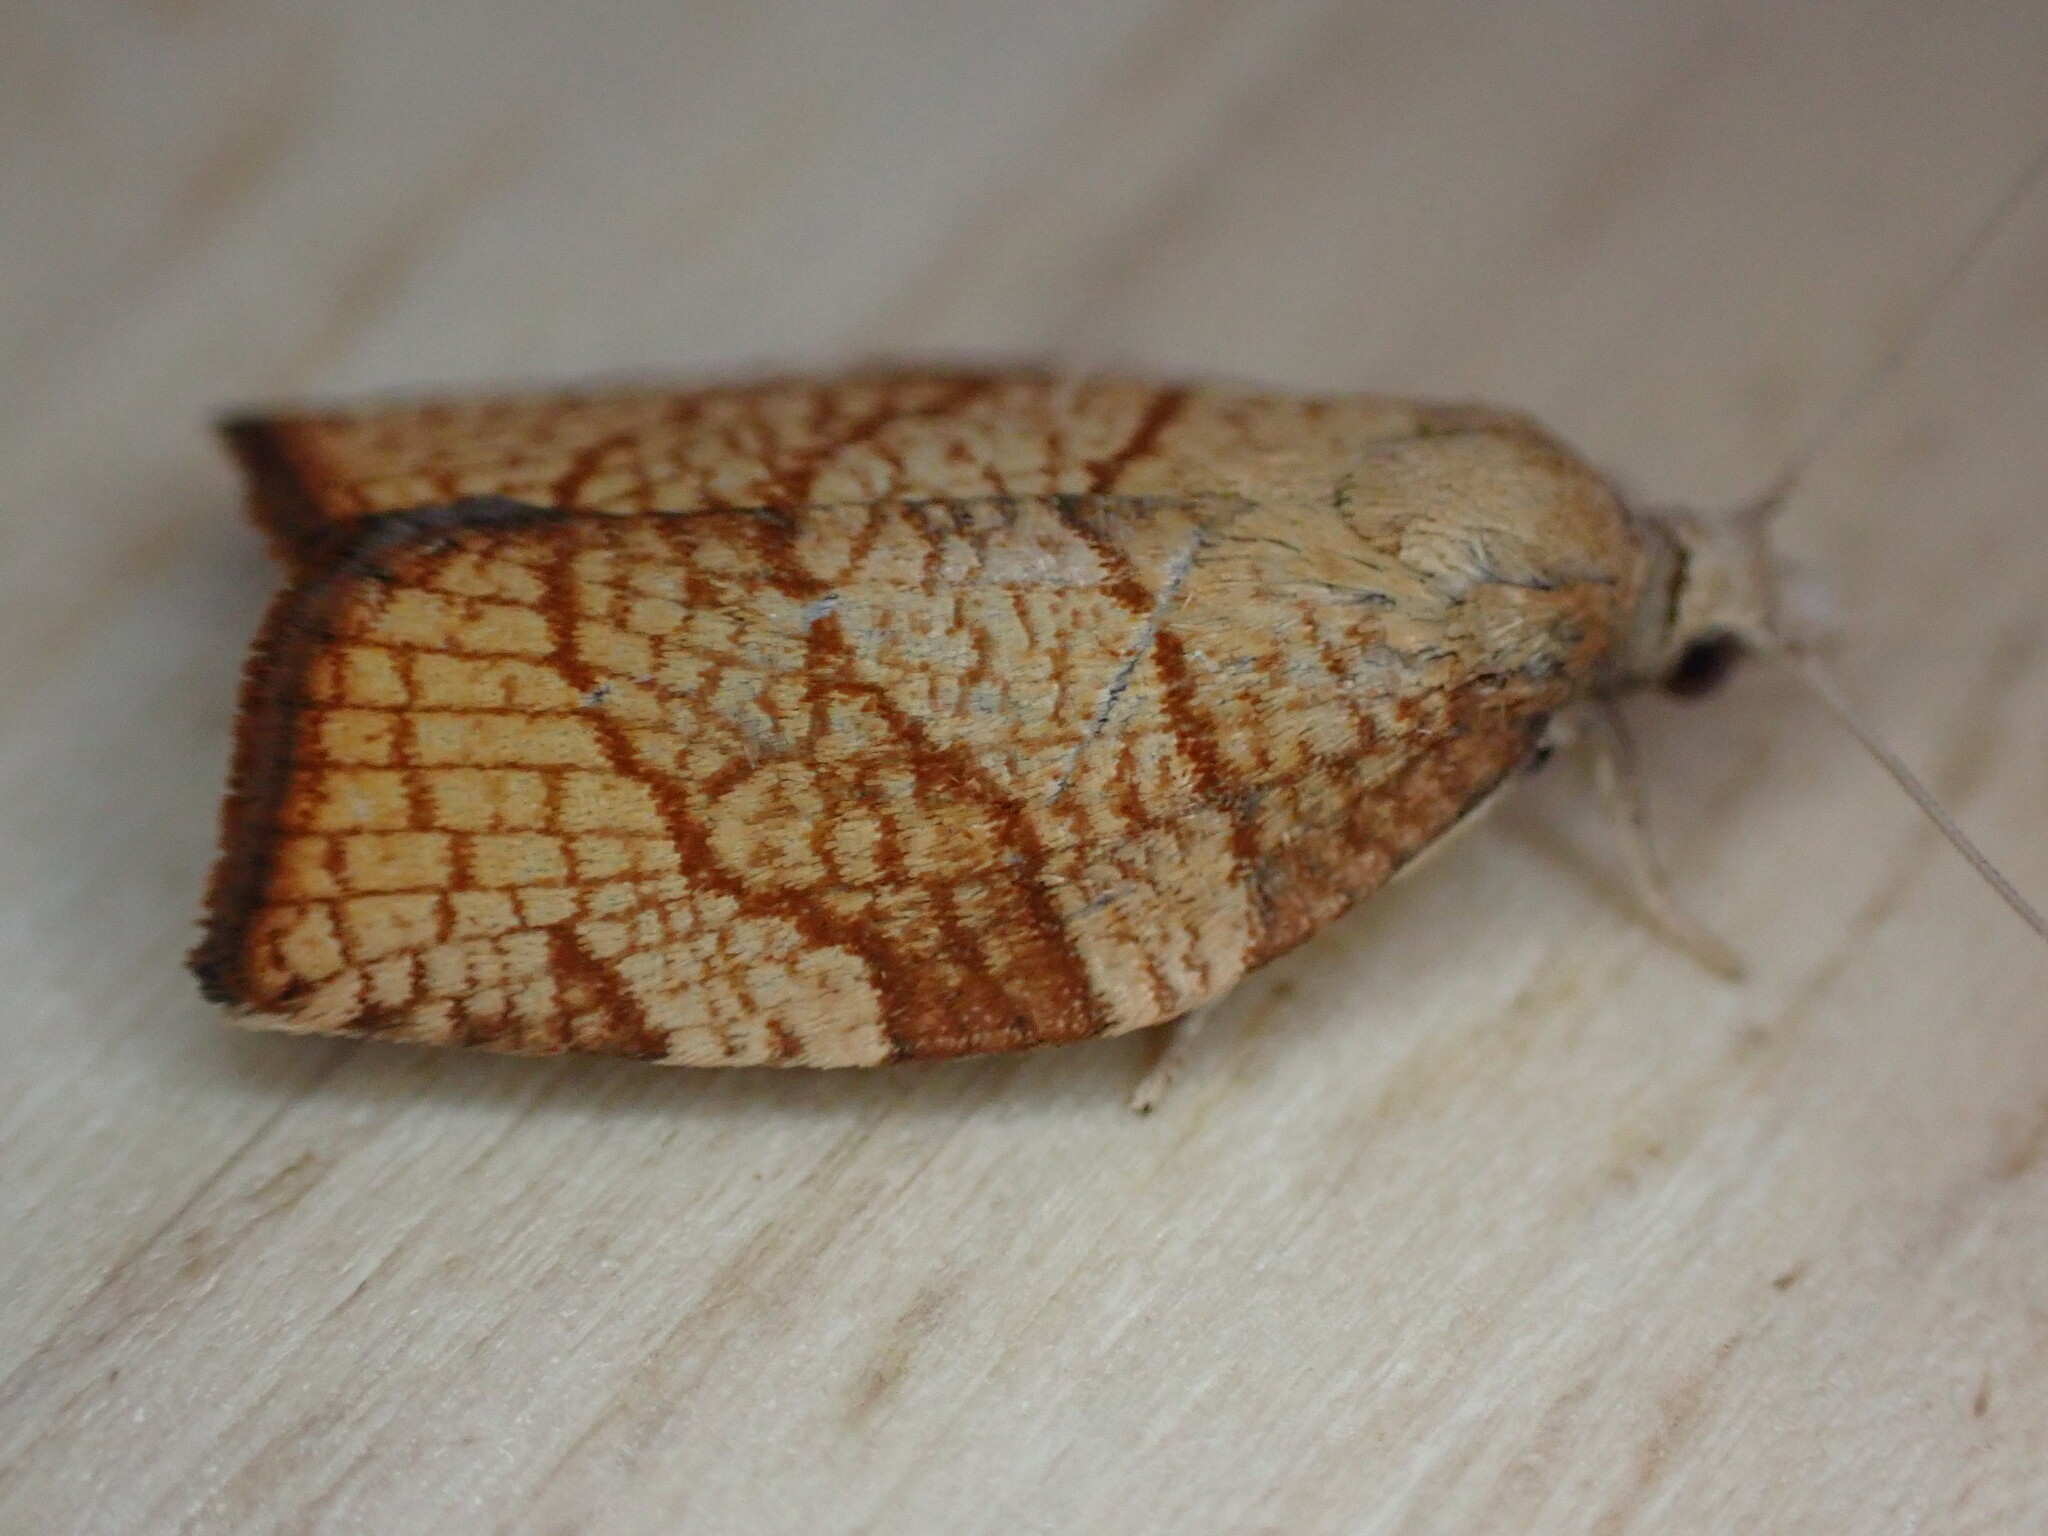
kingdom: Animalia
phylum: Arthropoda
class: Insecta
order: Lepidoptera
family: Tortricidae
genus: Pandemis
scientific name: Pandemis corylana
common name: Chequered fruit-tree tortrix
